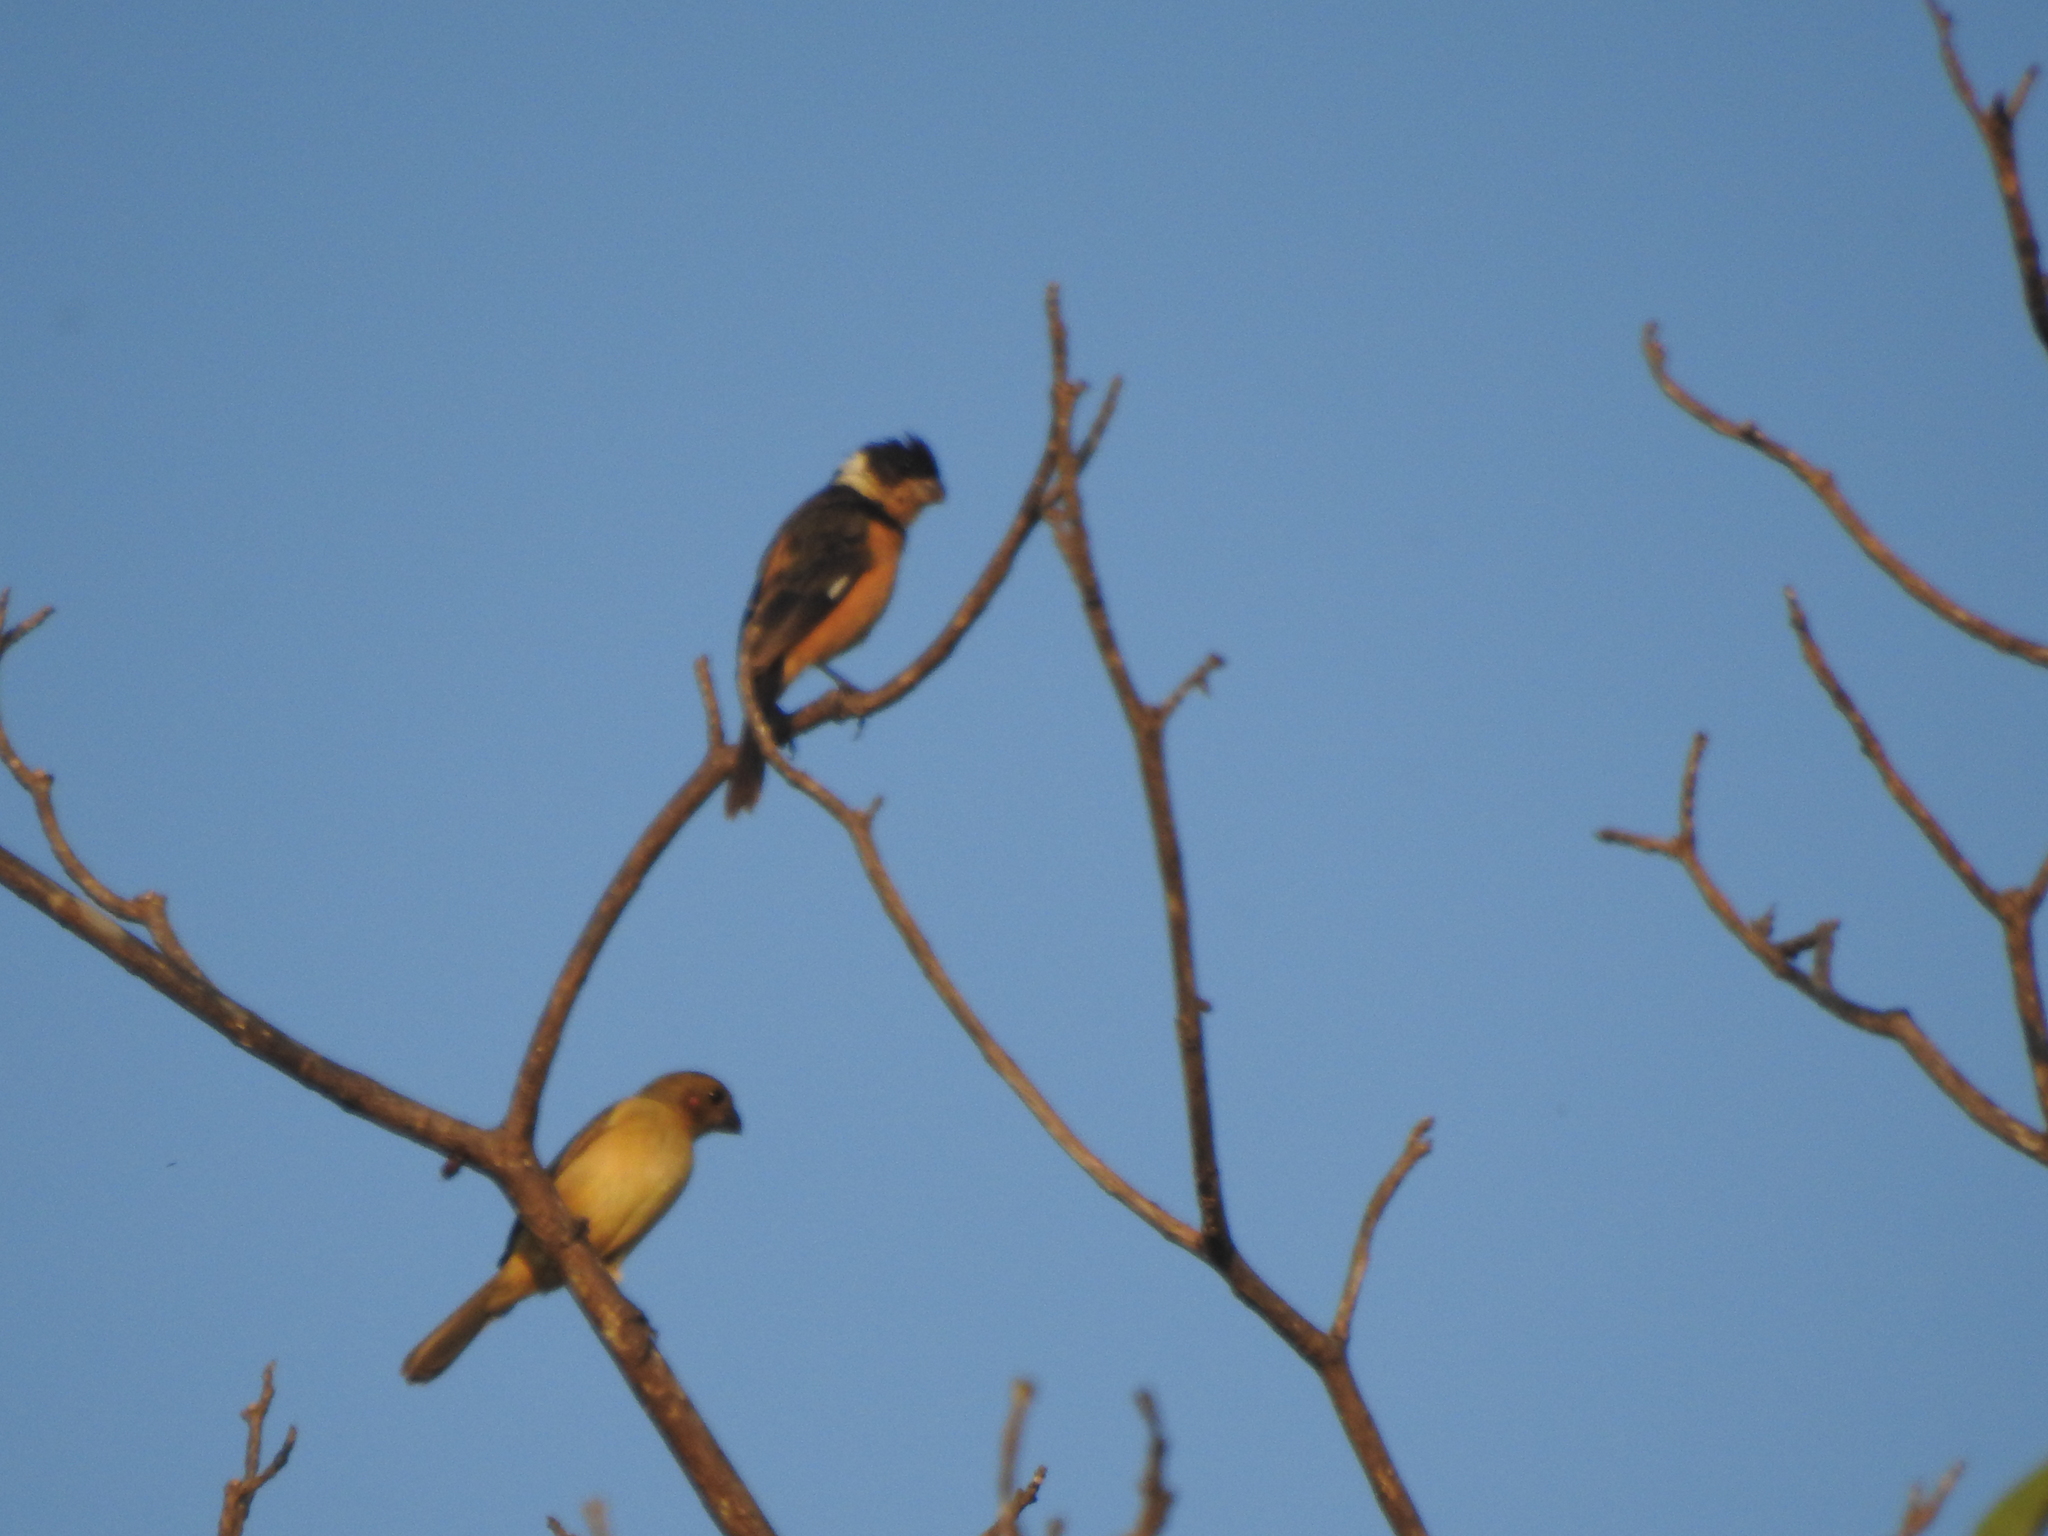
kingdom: Animalia
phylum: Chordata
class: Aves
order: Passeriformes
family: Thraupidae
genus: Sporophila
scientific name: Sporophila torqueola
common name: White-collared seedeater
